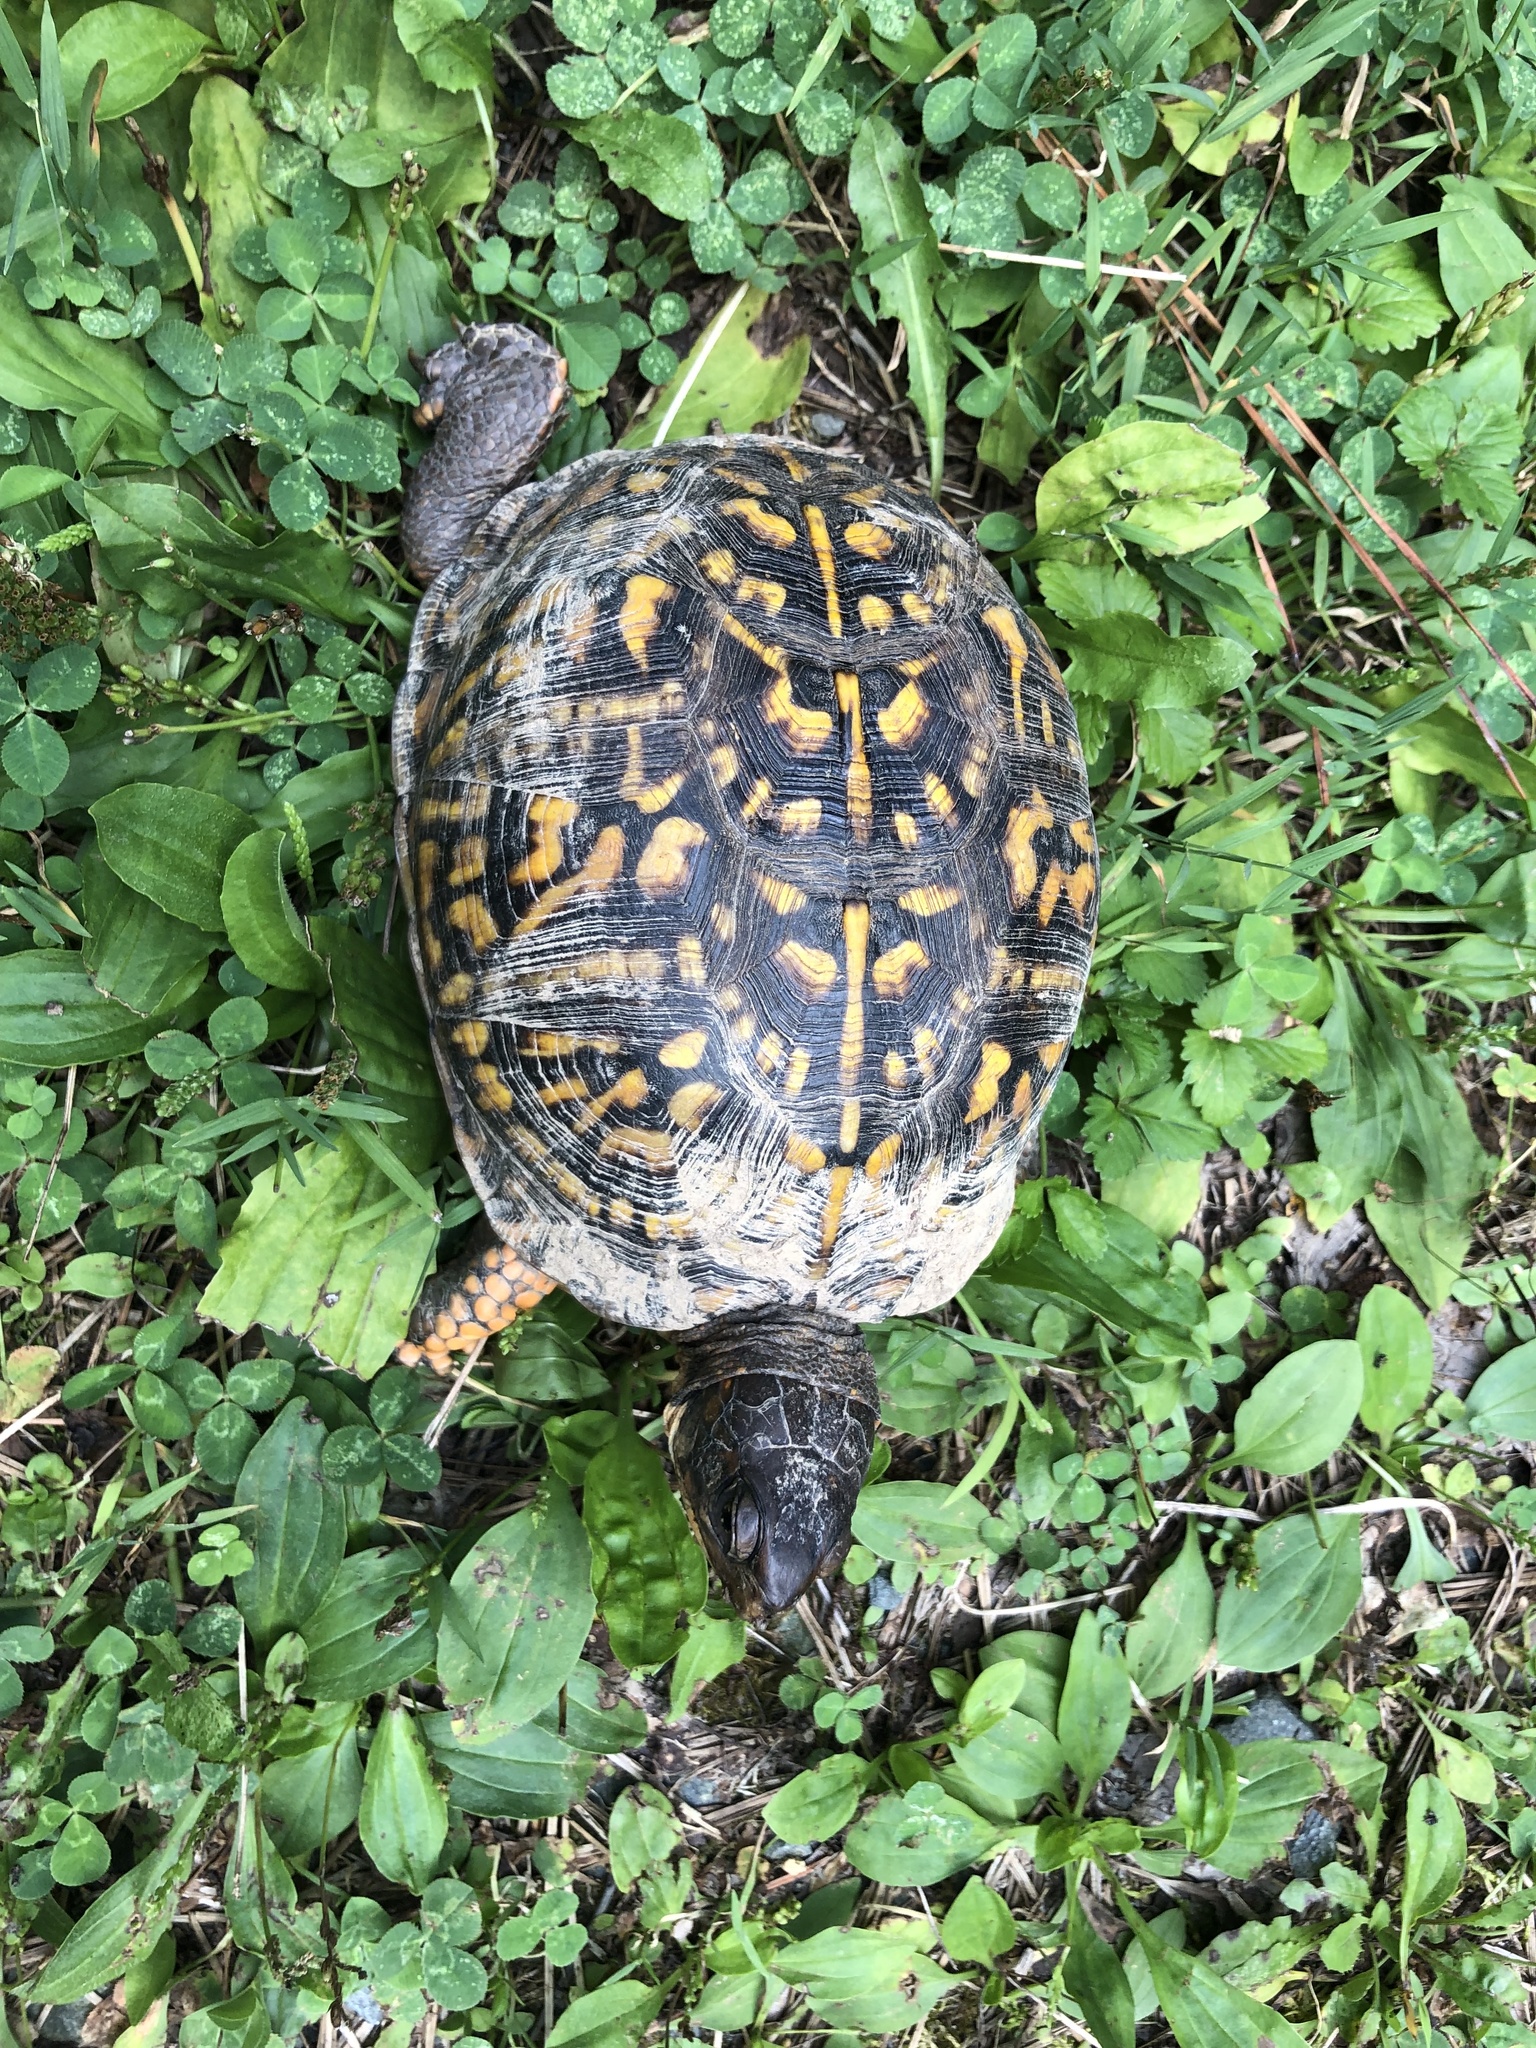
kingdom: Animalia
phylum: Chordata
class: Testudines
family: Emydidae
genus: Terrapene
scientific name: Terrapene carolina
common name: Common box turtle
